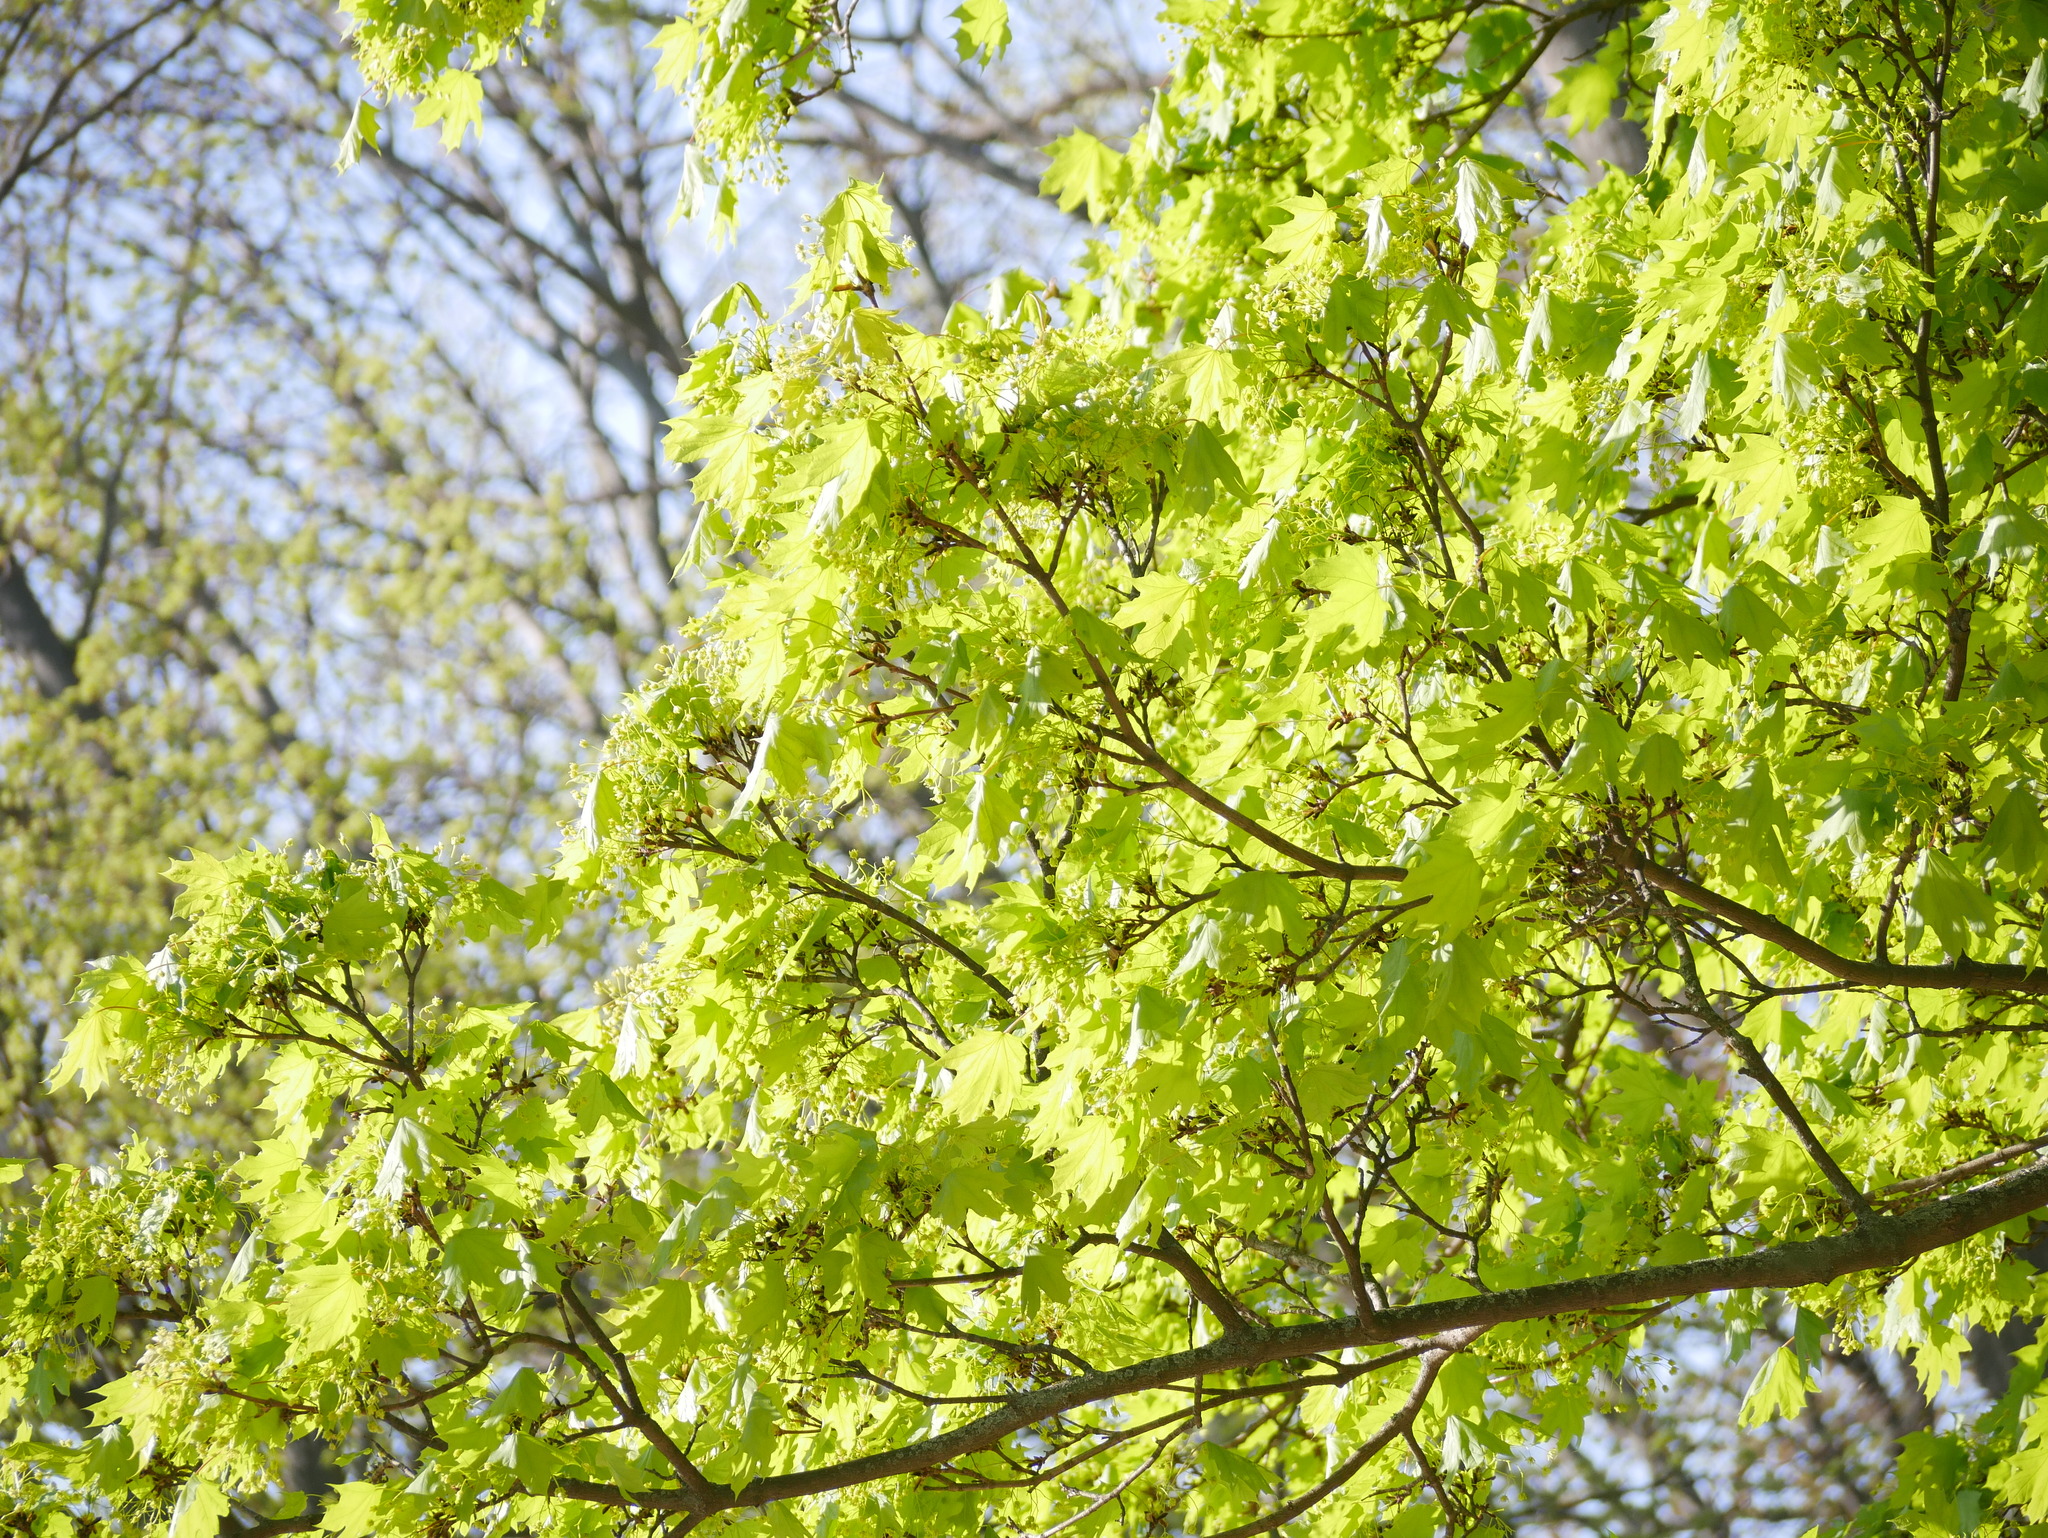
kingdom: Plantae
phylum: Tracheophyta
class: Magnoliopsida
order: Sapindales
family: Sapindaceae
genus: Acer
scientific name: Acer platanoides
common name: Norway maple
